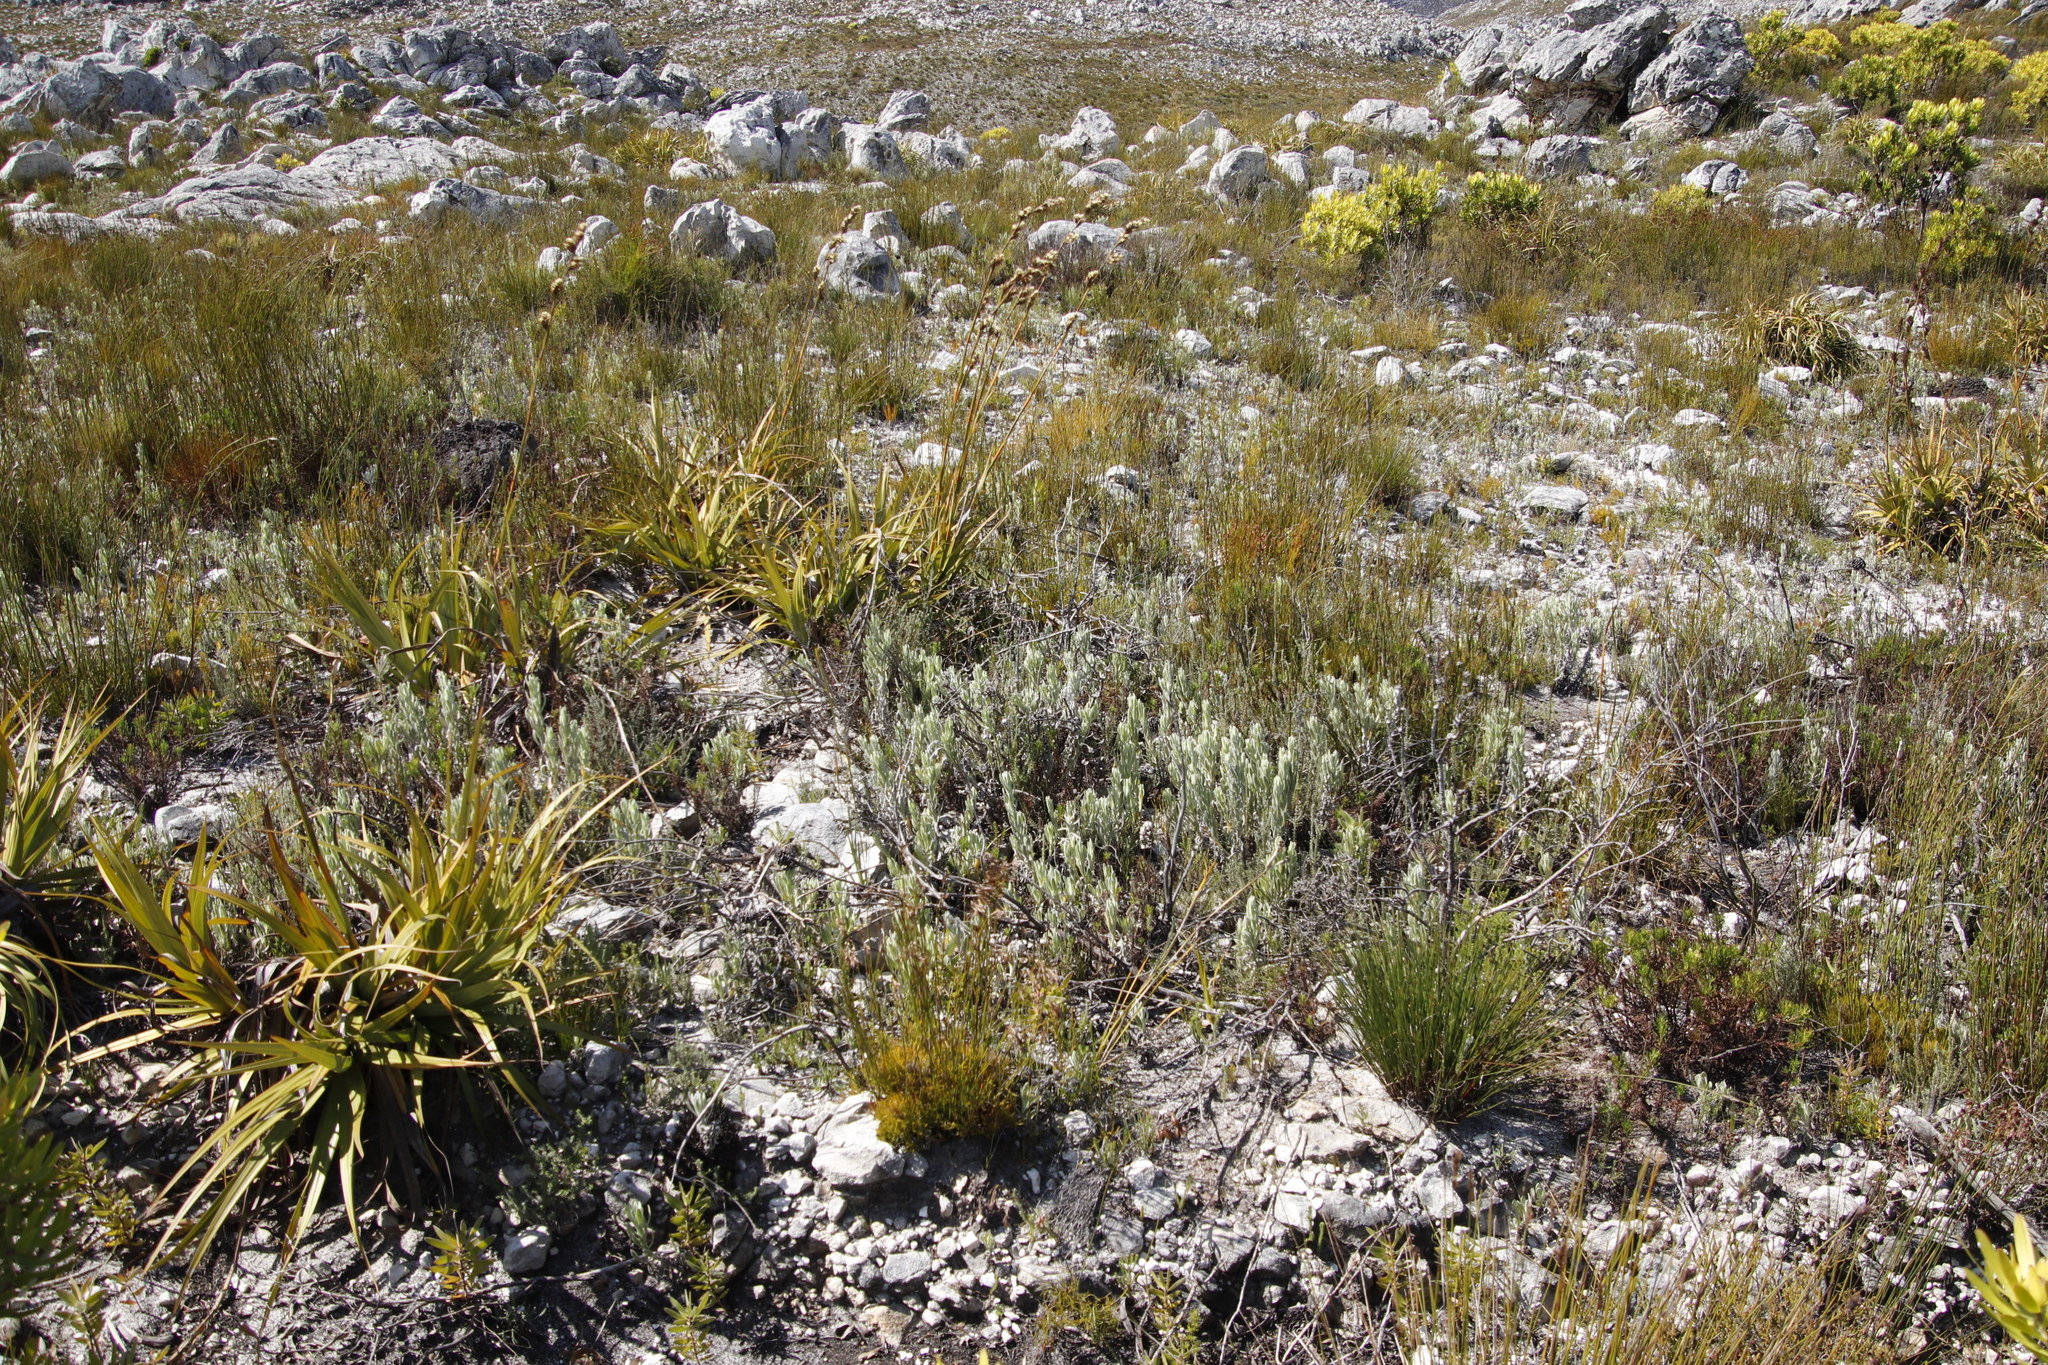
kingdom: Plantae
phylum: Tracheophyta
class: Magnoliopsida
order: Asterales
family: Asteraceae
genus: Syncarpha
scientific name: Syncarpha vestita
